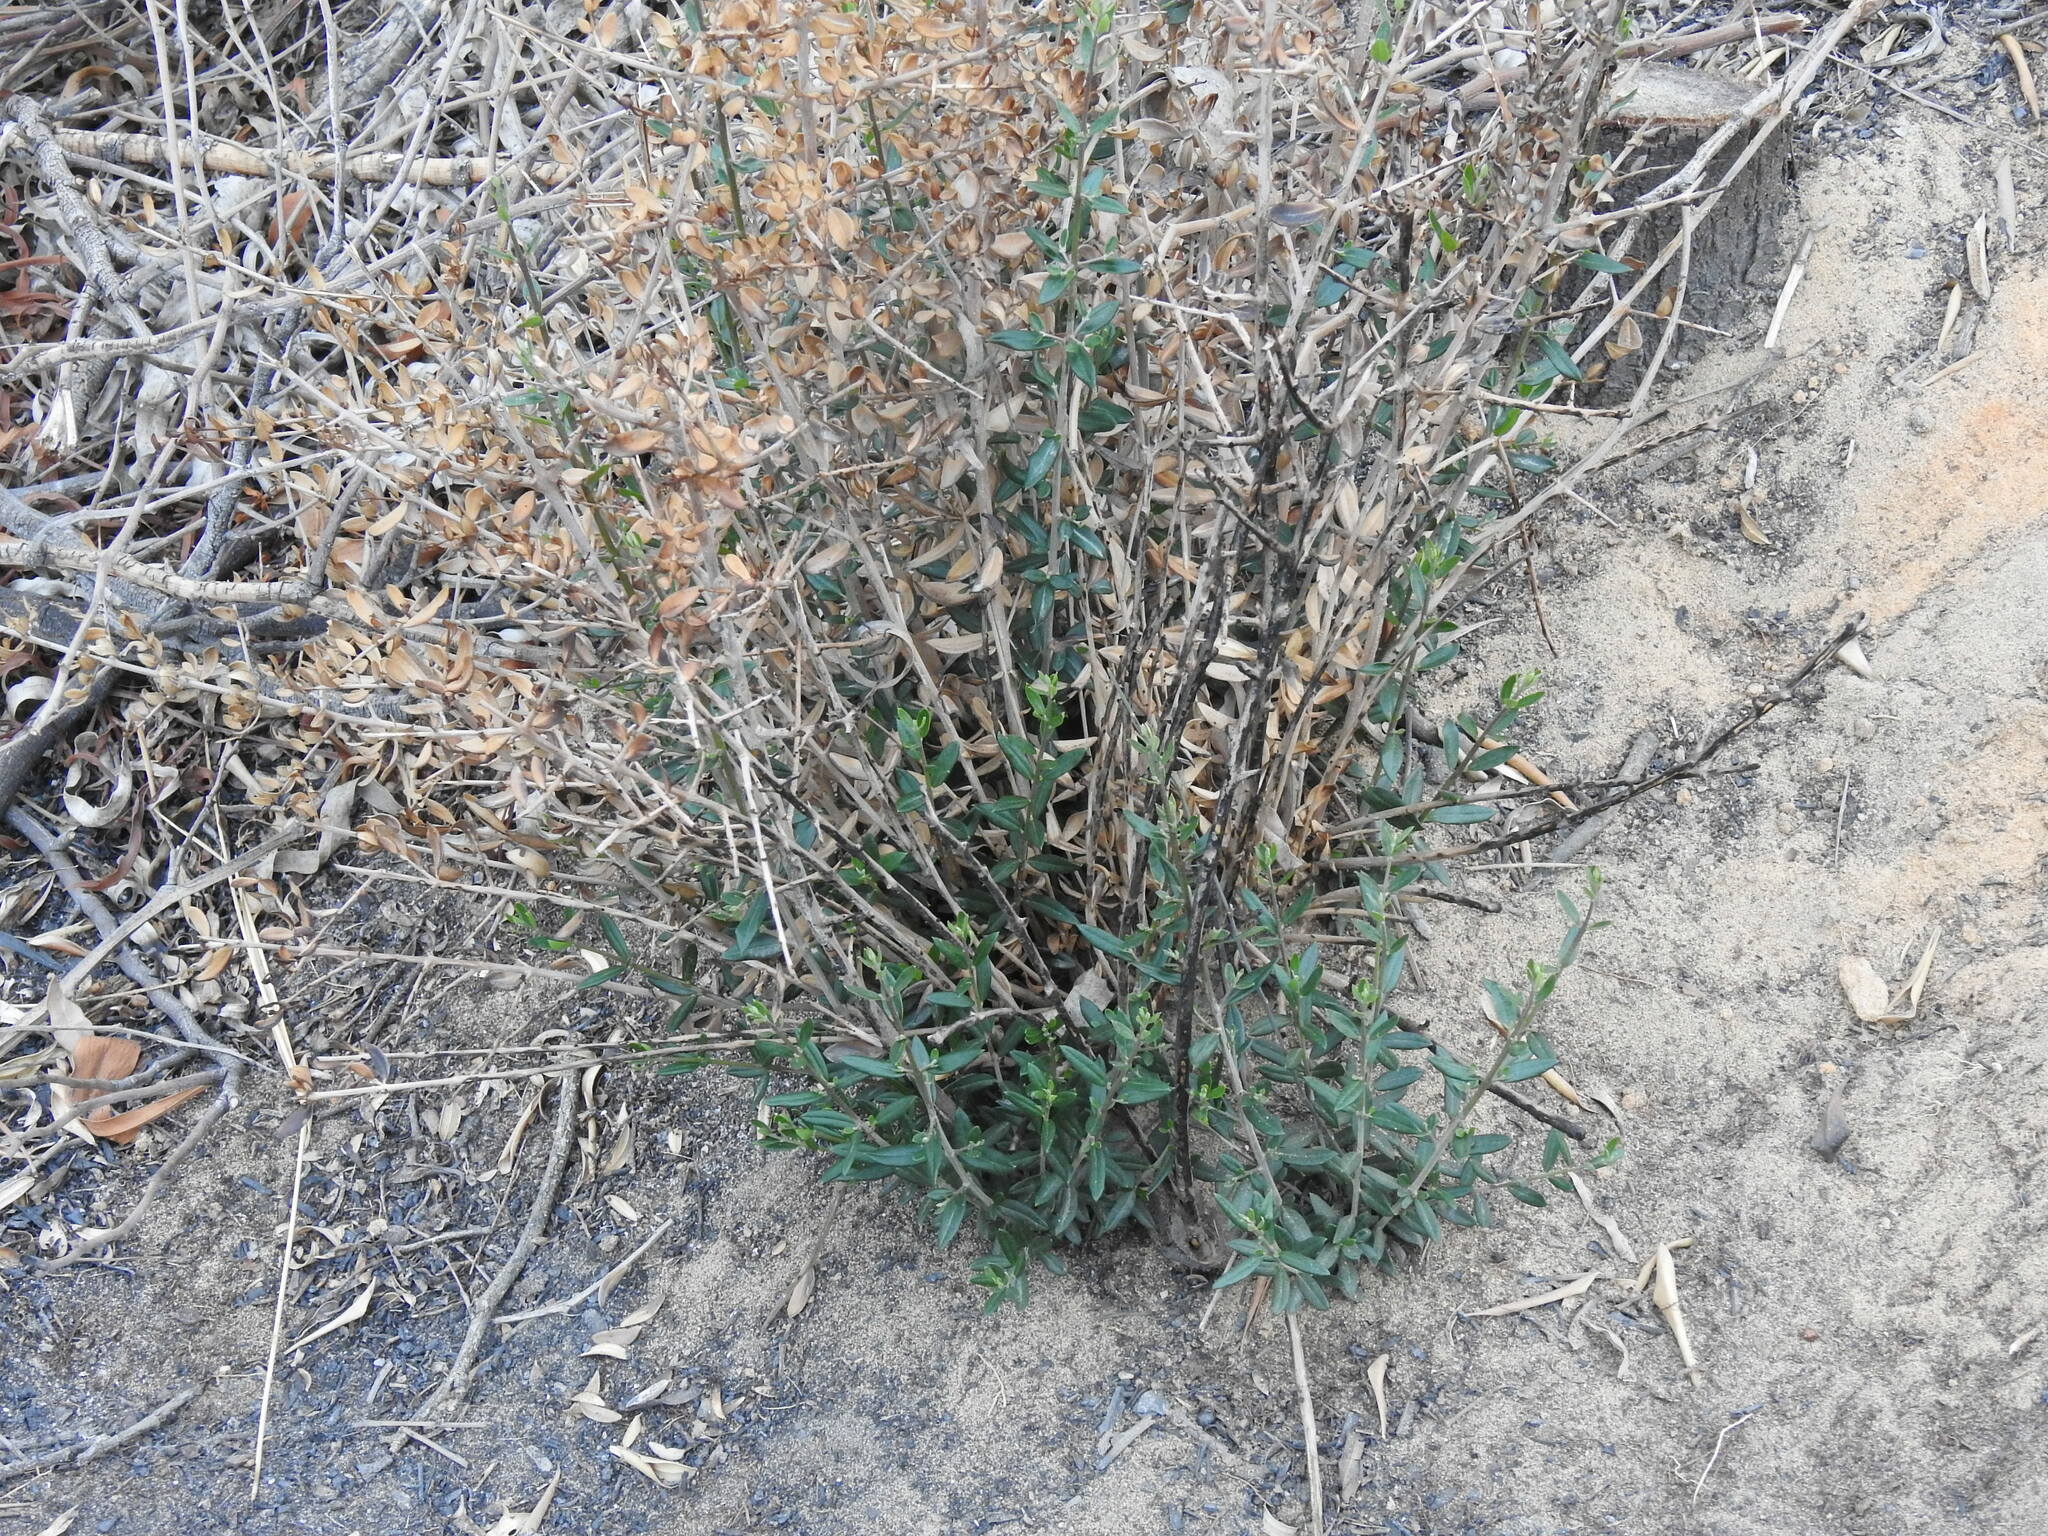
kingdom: Plantae
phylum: Tracheophyta
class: Magnoliopsida
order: Lamiales
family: Oleaceae
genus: Olea
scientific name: Olea europaea
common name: Olive
